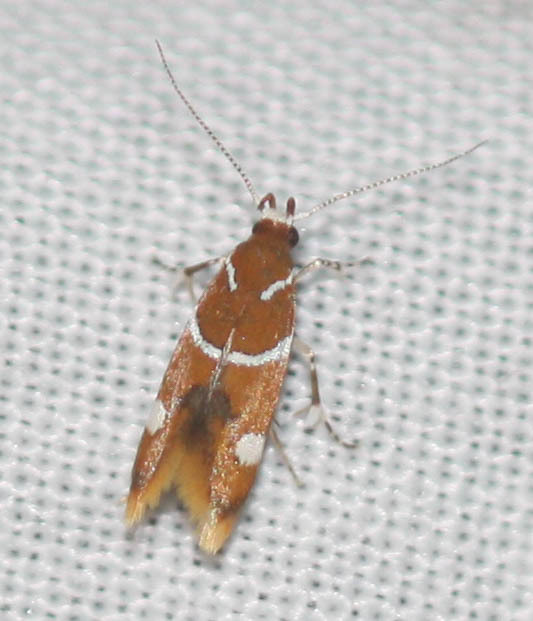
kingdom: Animalia
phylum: Arthropoda
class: Insecta
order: Lepidoptera
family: Oecophoridae
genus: Promalactis
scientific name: Promalactis suzukiella
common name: Moth
